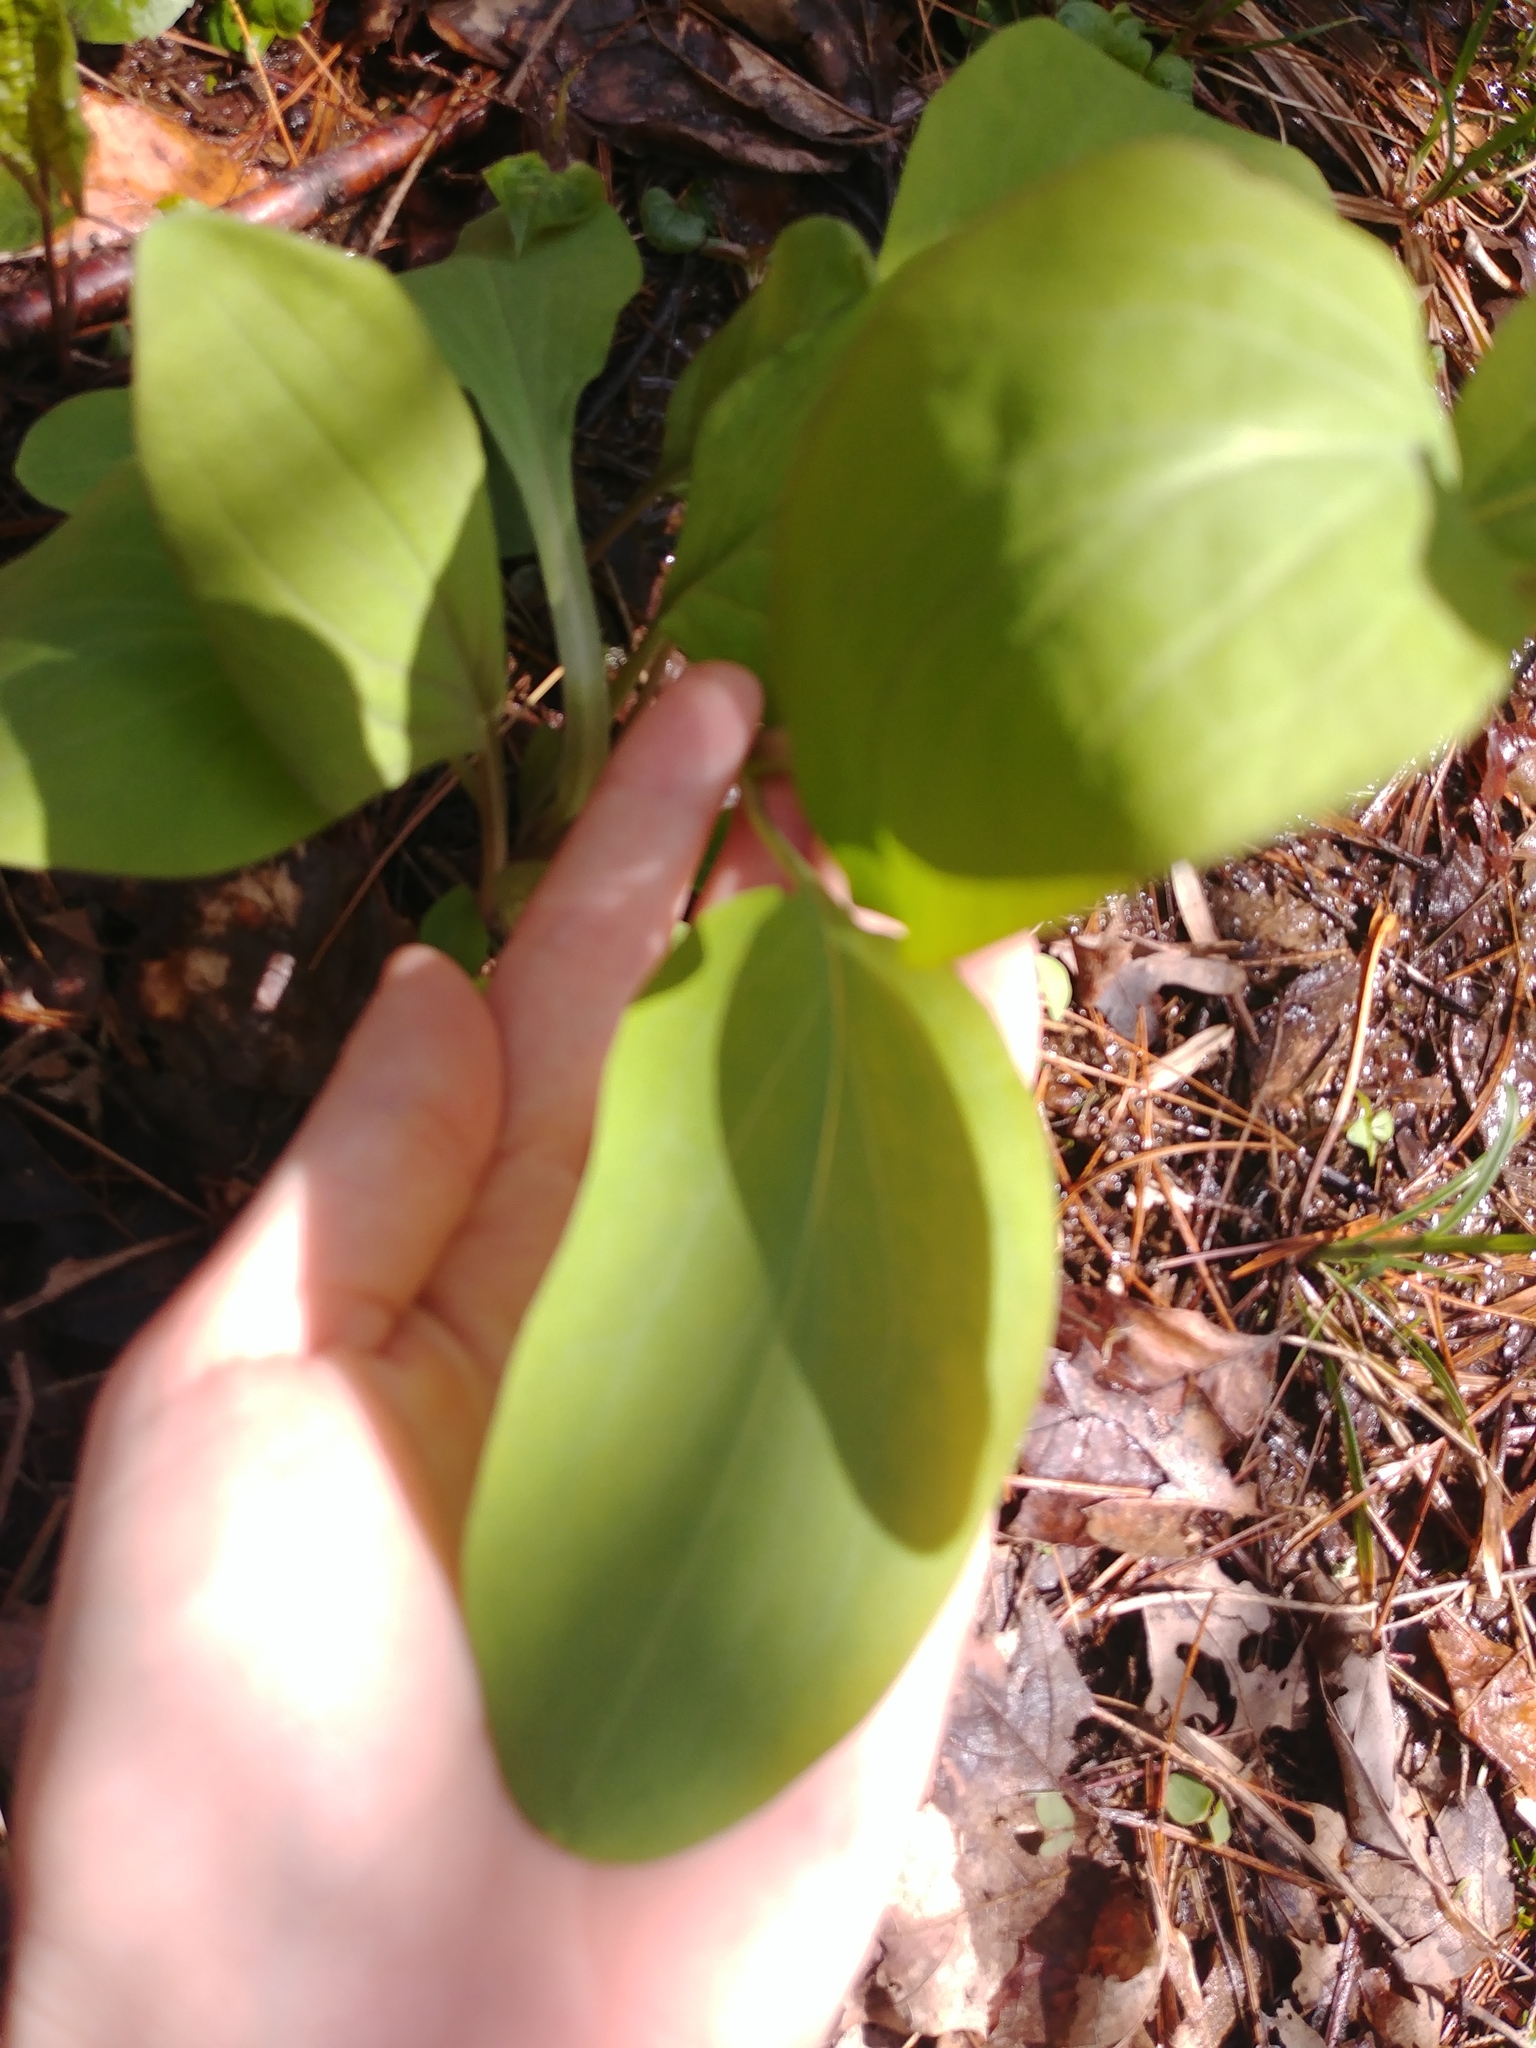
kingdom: Plantae
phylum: Tracheophyta
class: Magnoliopsida
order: Boraginales
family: Boraginaceae
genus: Mertensia
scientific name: Mertensia virginica
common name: Virginia bluebells
